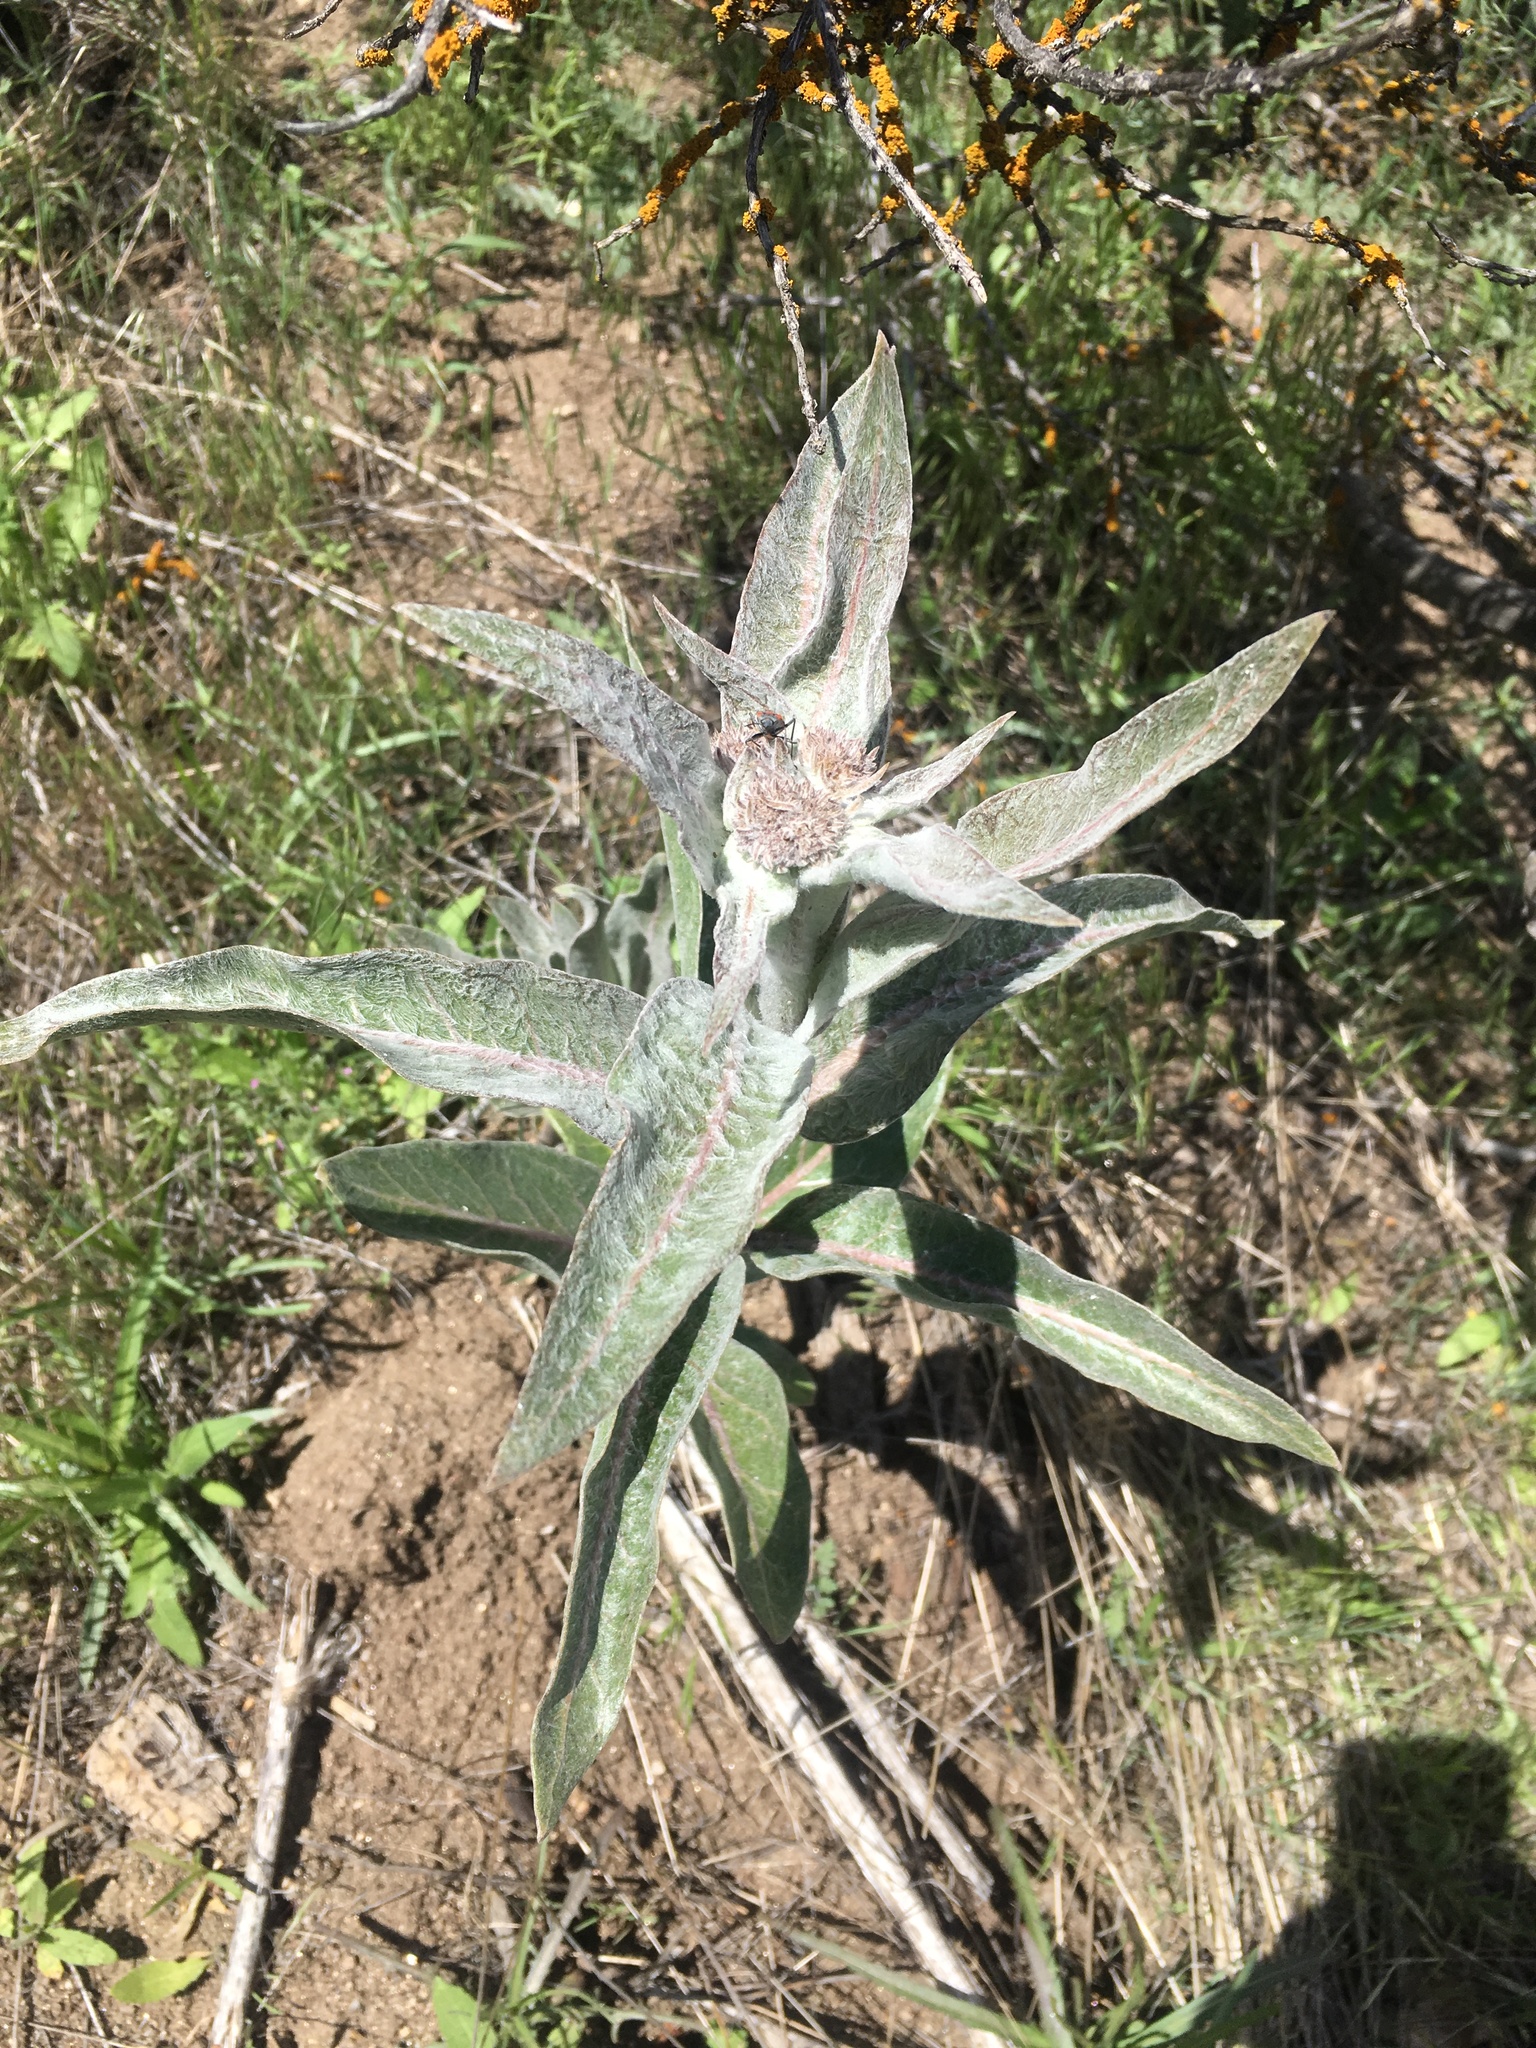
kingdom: Plantae
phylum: Tracheophyta
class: Magnoliopsida
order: Gentianales
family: Apocynaceae
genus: Asclepias
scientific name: Asclepias eriocarpa
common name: Indian milkweed
